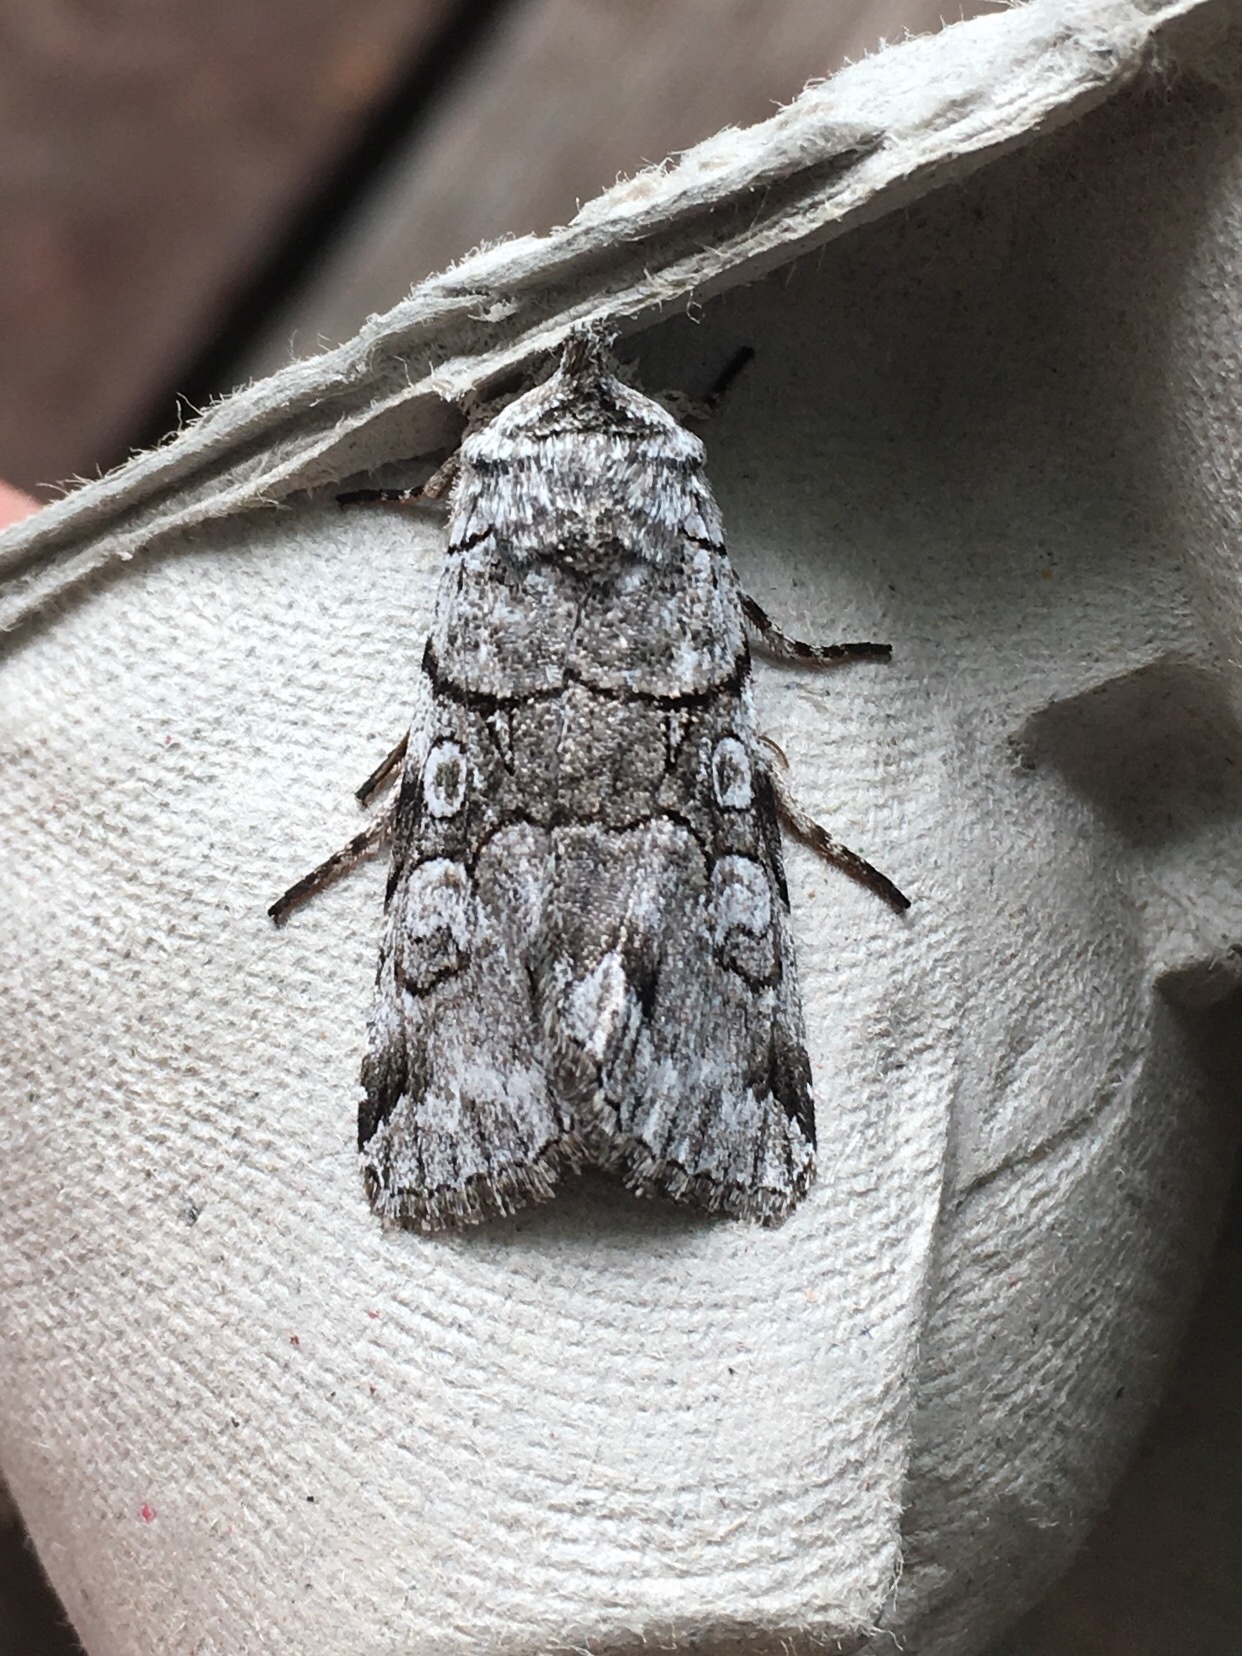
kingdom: Animalia
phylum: Arthropoda
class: Insecta
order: Lepidoptera
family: Noctuidae
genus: Sympistis
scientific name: Sympistis chionanthi
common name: Fringe-tree sallow
